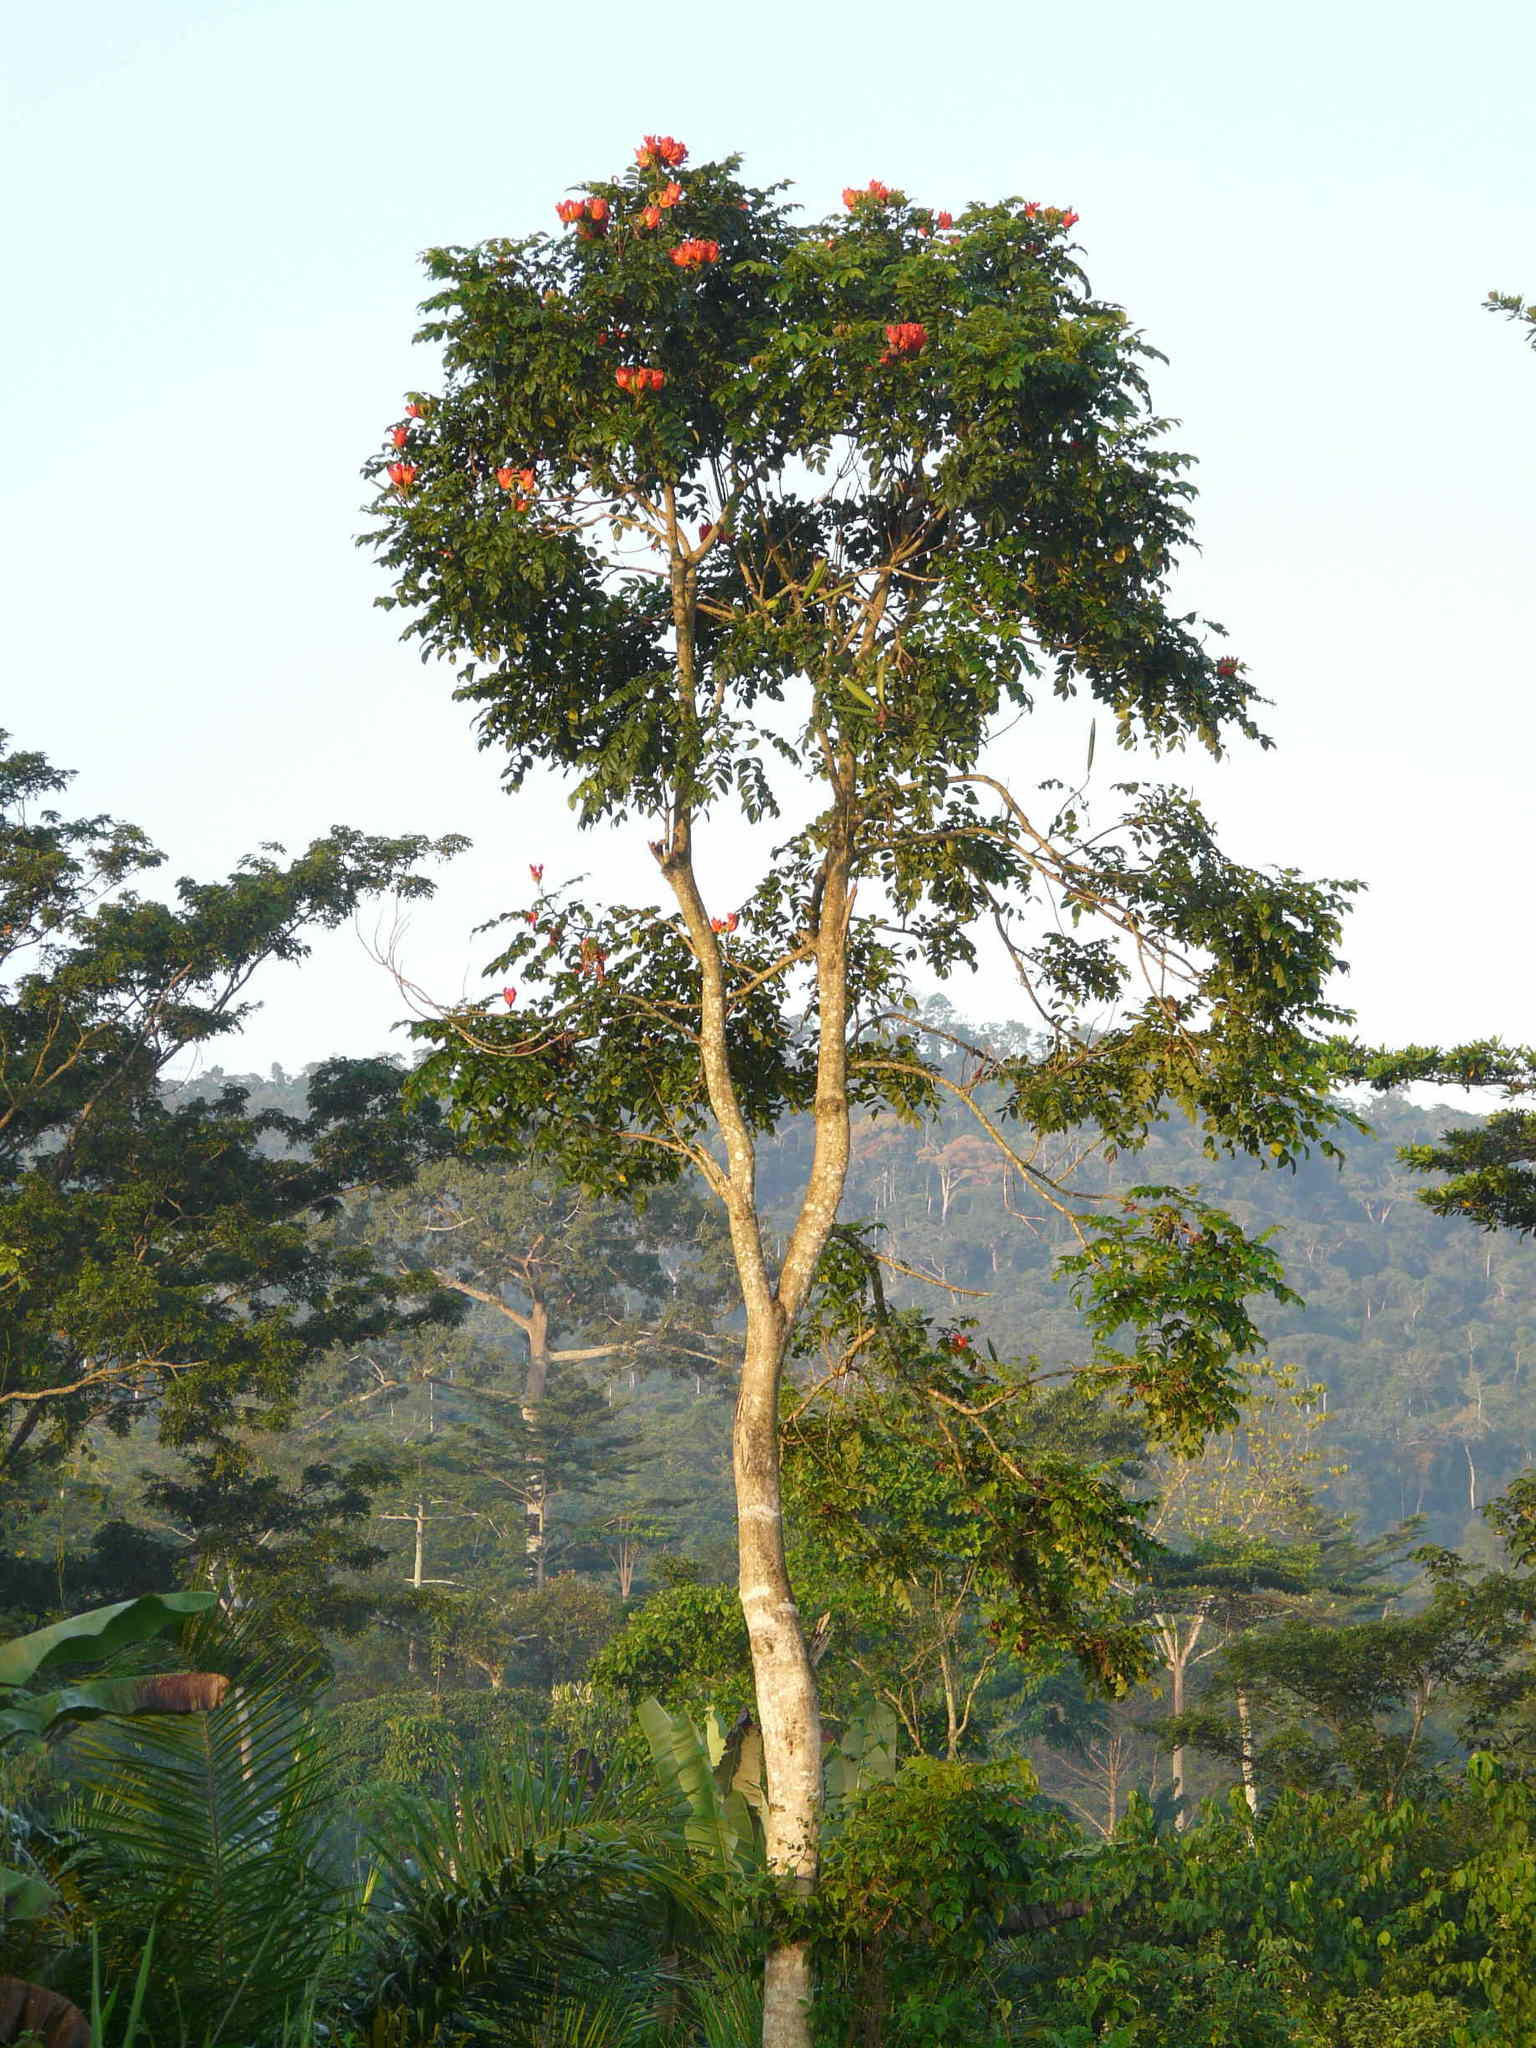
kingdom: Plantae
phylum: Tracheophyta
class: Magnoliopsida
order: Lamiales
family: Bignoniaceae
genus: Spathodea
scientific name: Spathodea campanulata
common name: African tuliptree
